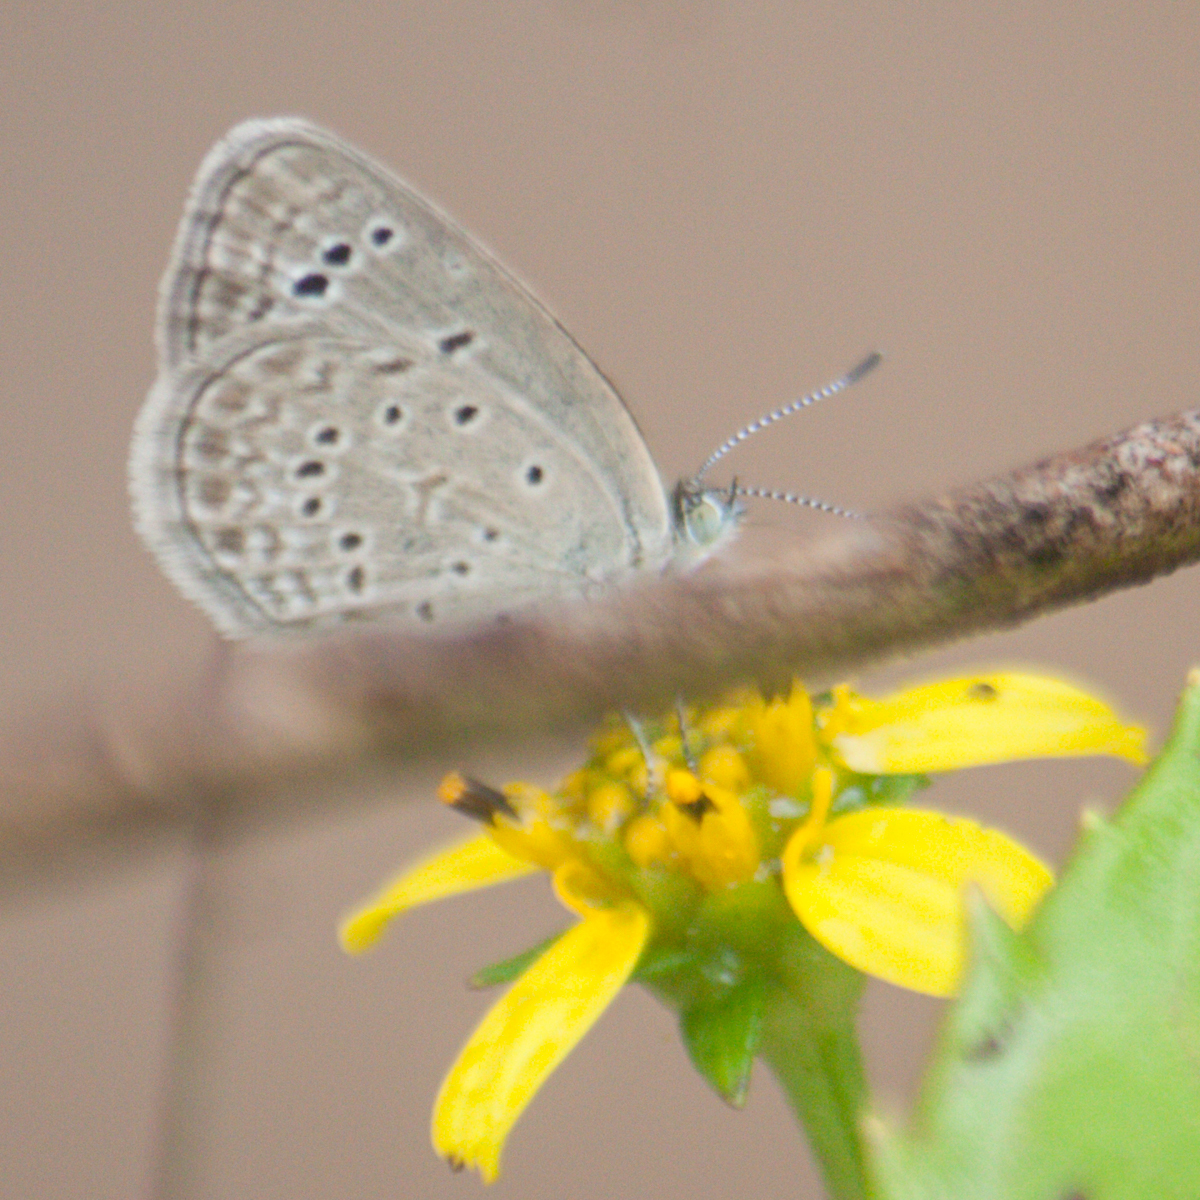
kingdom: Animalia
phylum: Arthropoda
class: Insecta
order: Lepidoptera
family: Lycaenidae
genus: Zizeeria
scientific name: Zizeeria karsandra
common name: Dark grass blue
